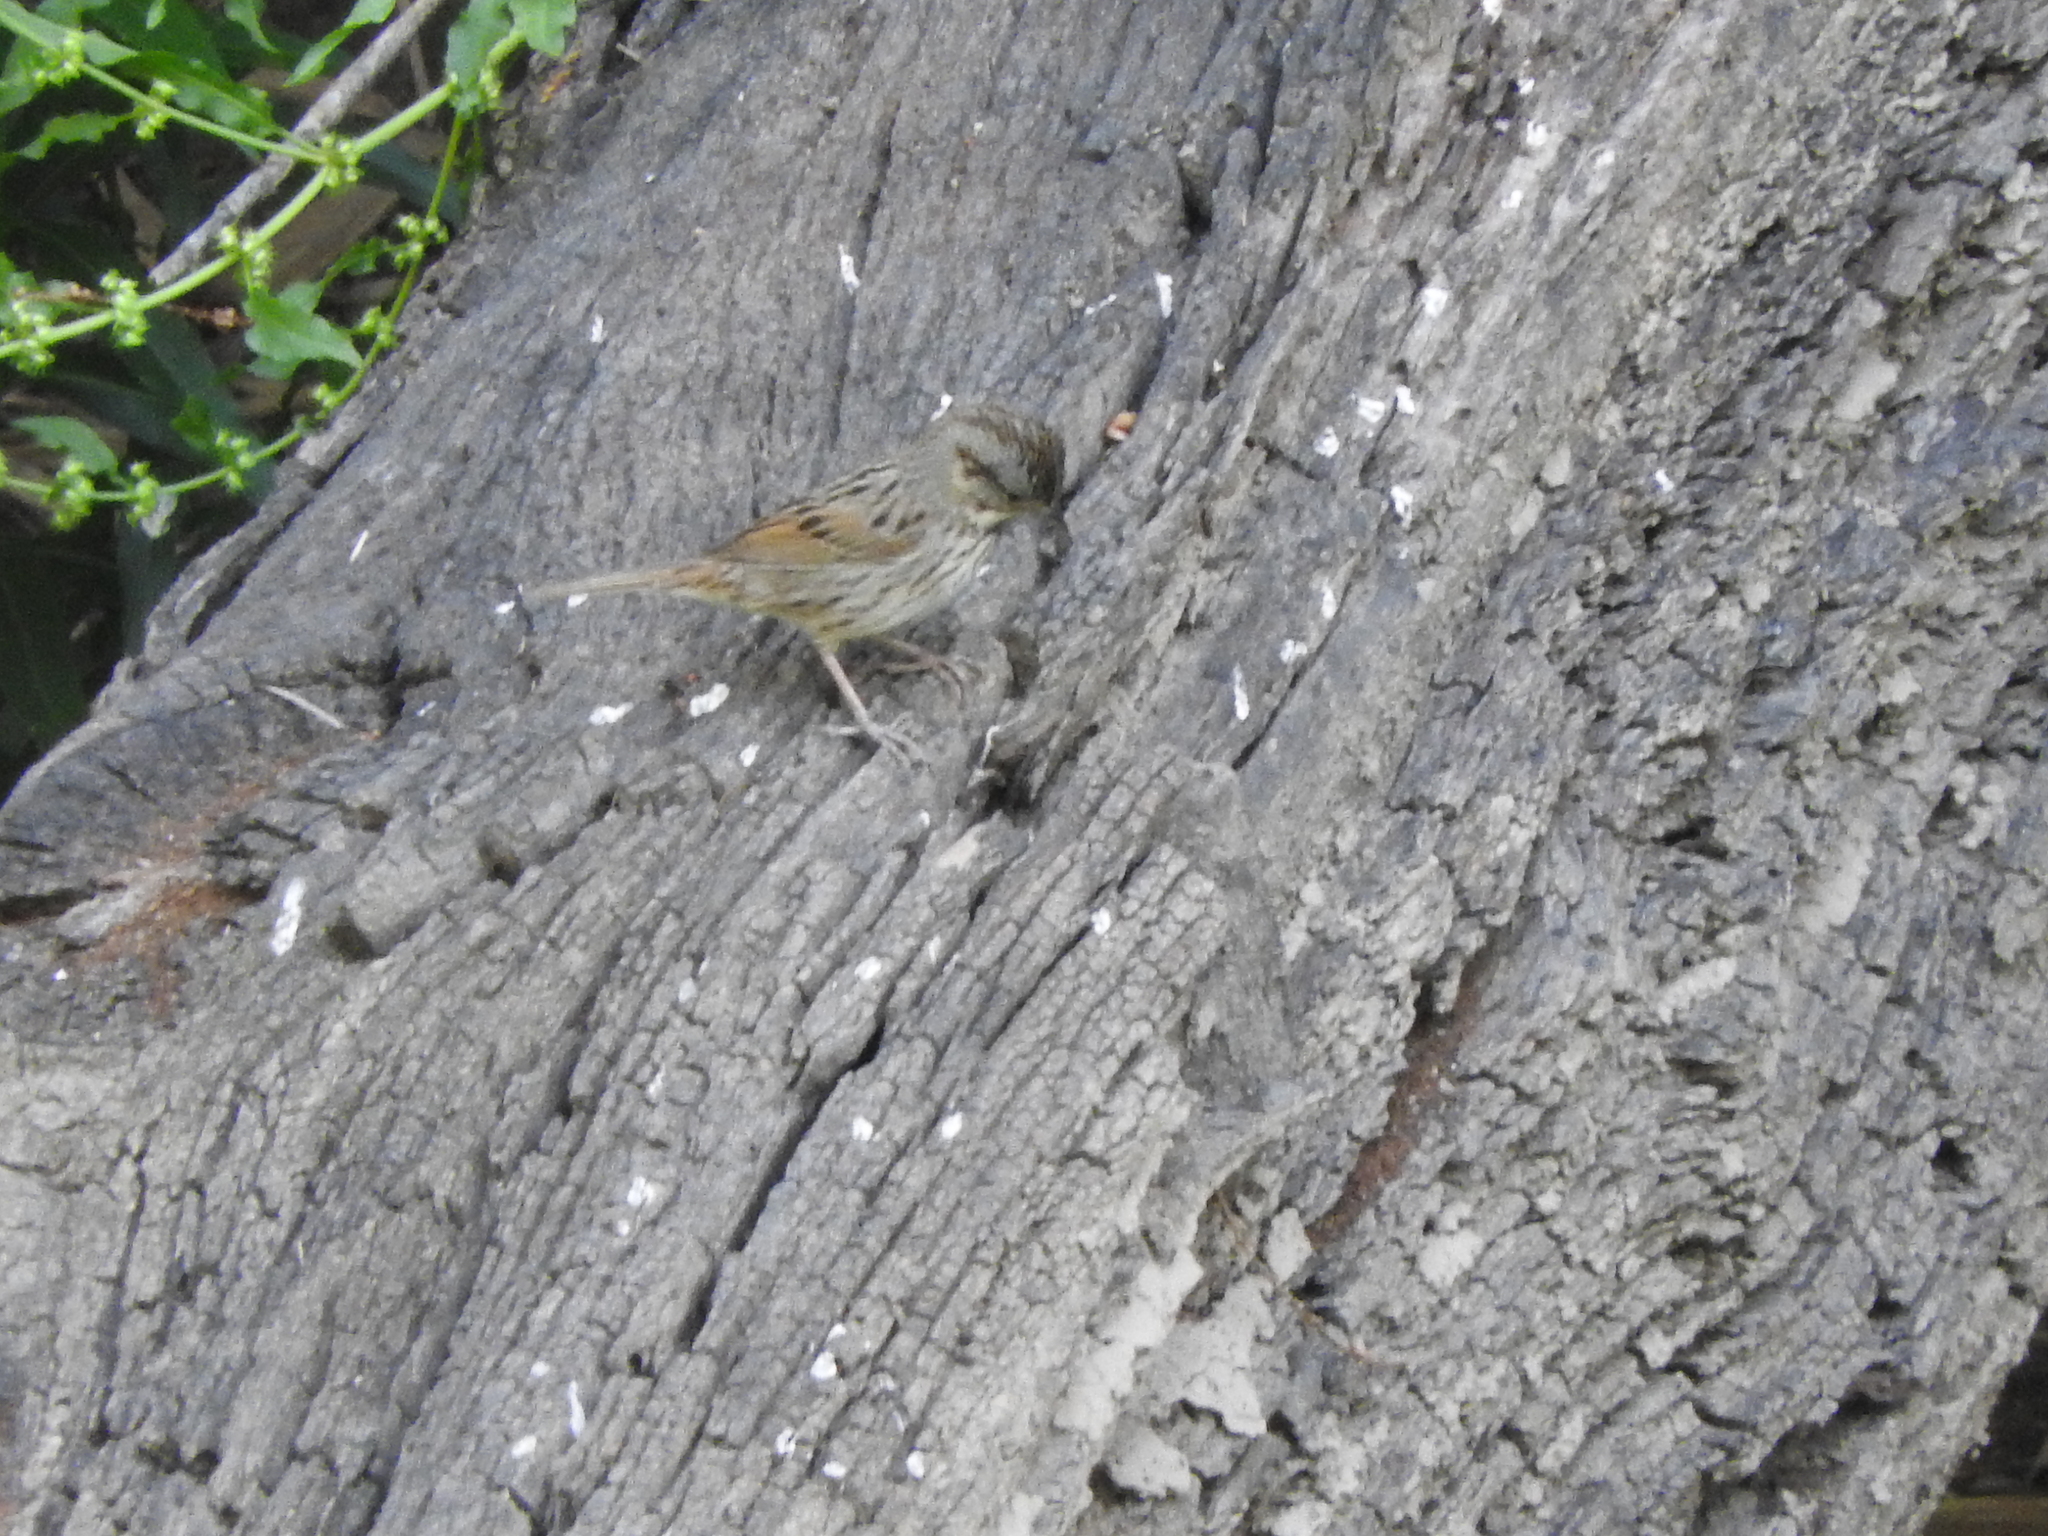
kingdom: Animalia
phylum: Chordata
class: Aves
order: Passeriformes
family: Passerellidae
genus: Melospiza
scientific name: Melospiza lincolnii
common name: Lincoln's sparrow
